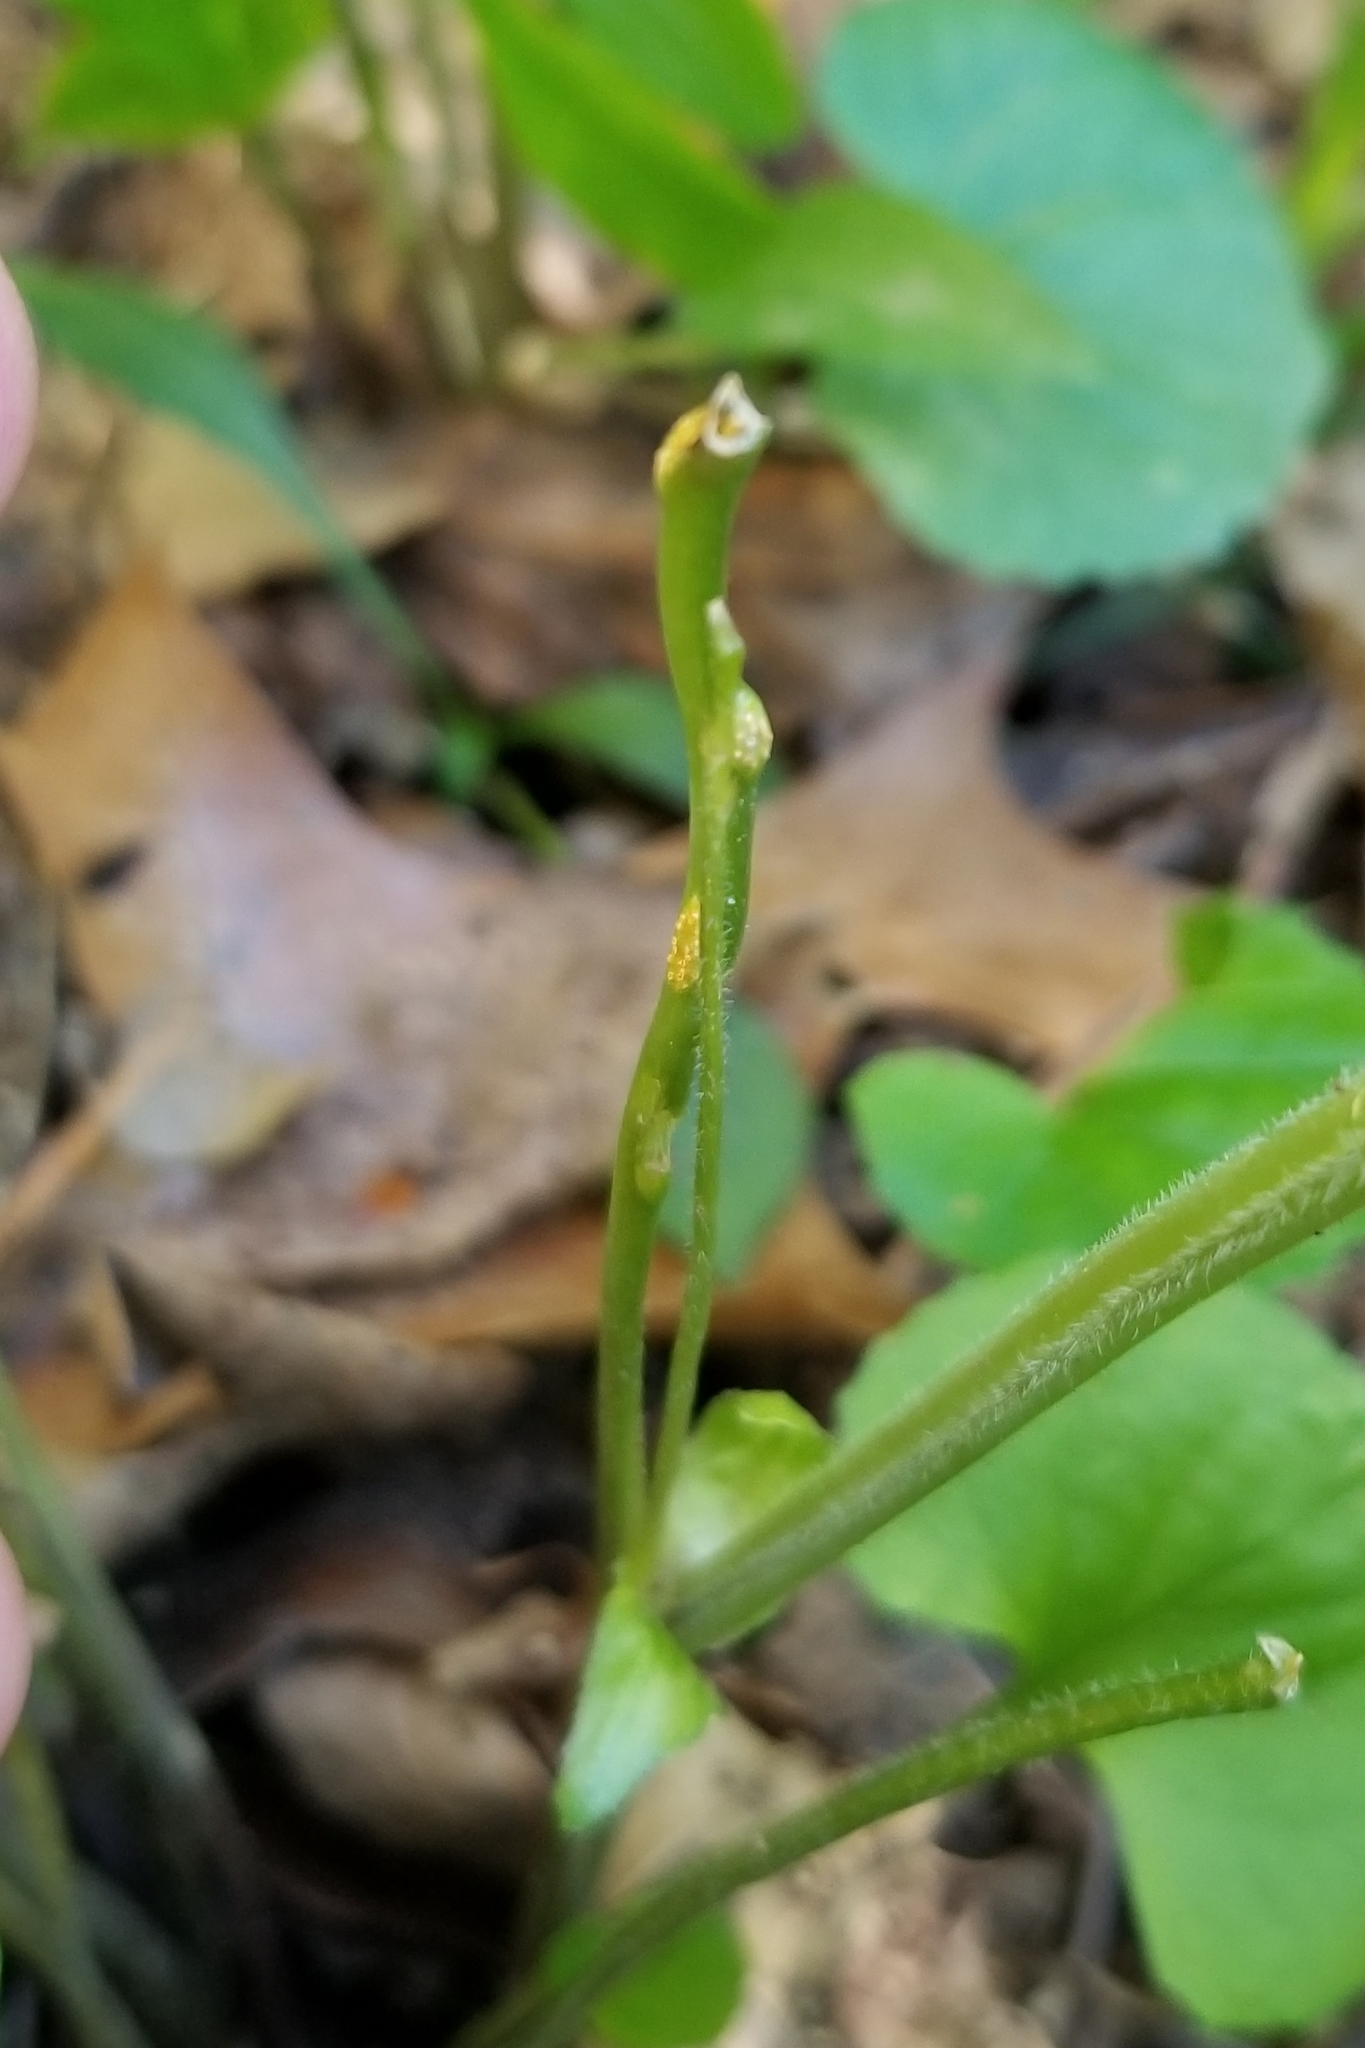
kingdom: Fungi
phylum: Basidiomycota
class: Pucciniomycetes
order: Pucciniales
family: Pucciniaceae
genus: Puccinia
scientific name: Puccinia violae
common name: Violet rust
